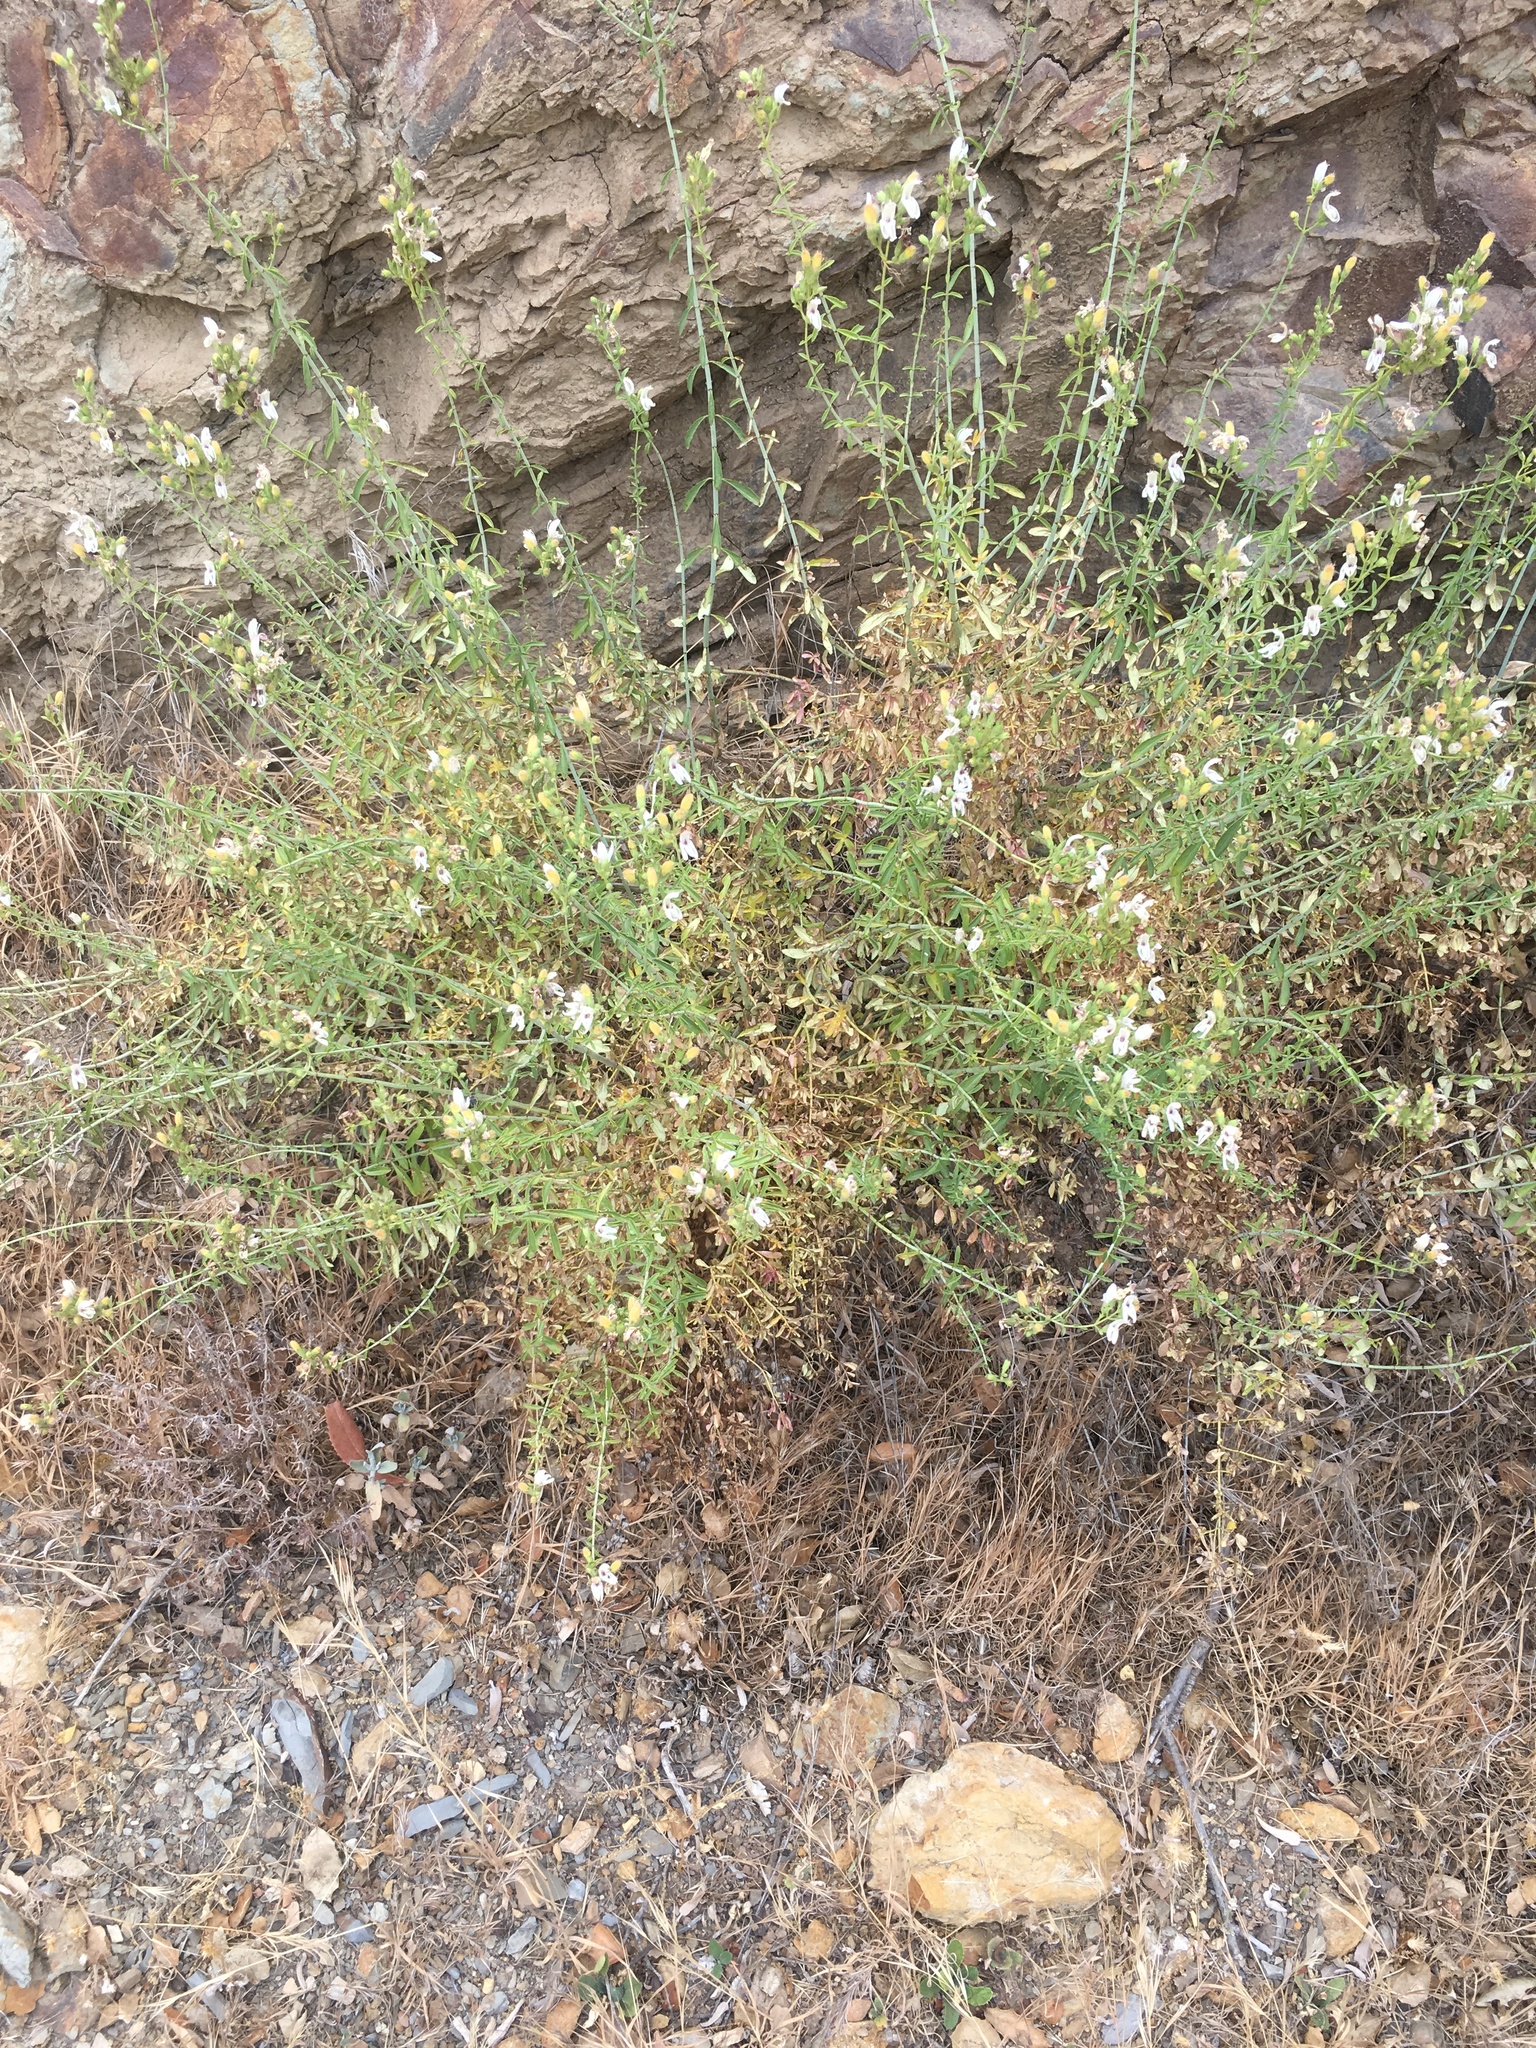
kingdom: Plantae
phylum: Tracheophyta
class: Magnoliopsida
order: Lamiales
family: Plantaginaceae
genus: Keckiella
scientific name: Keckiella breviflora
